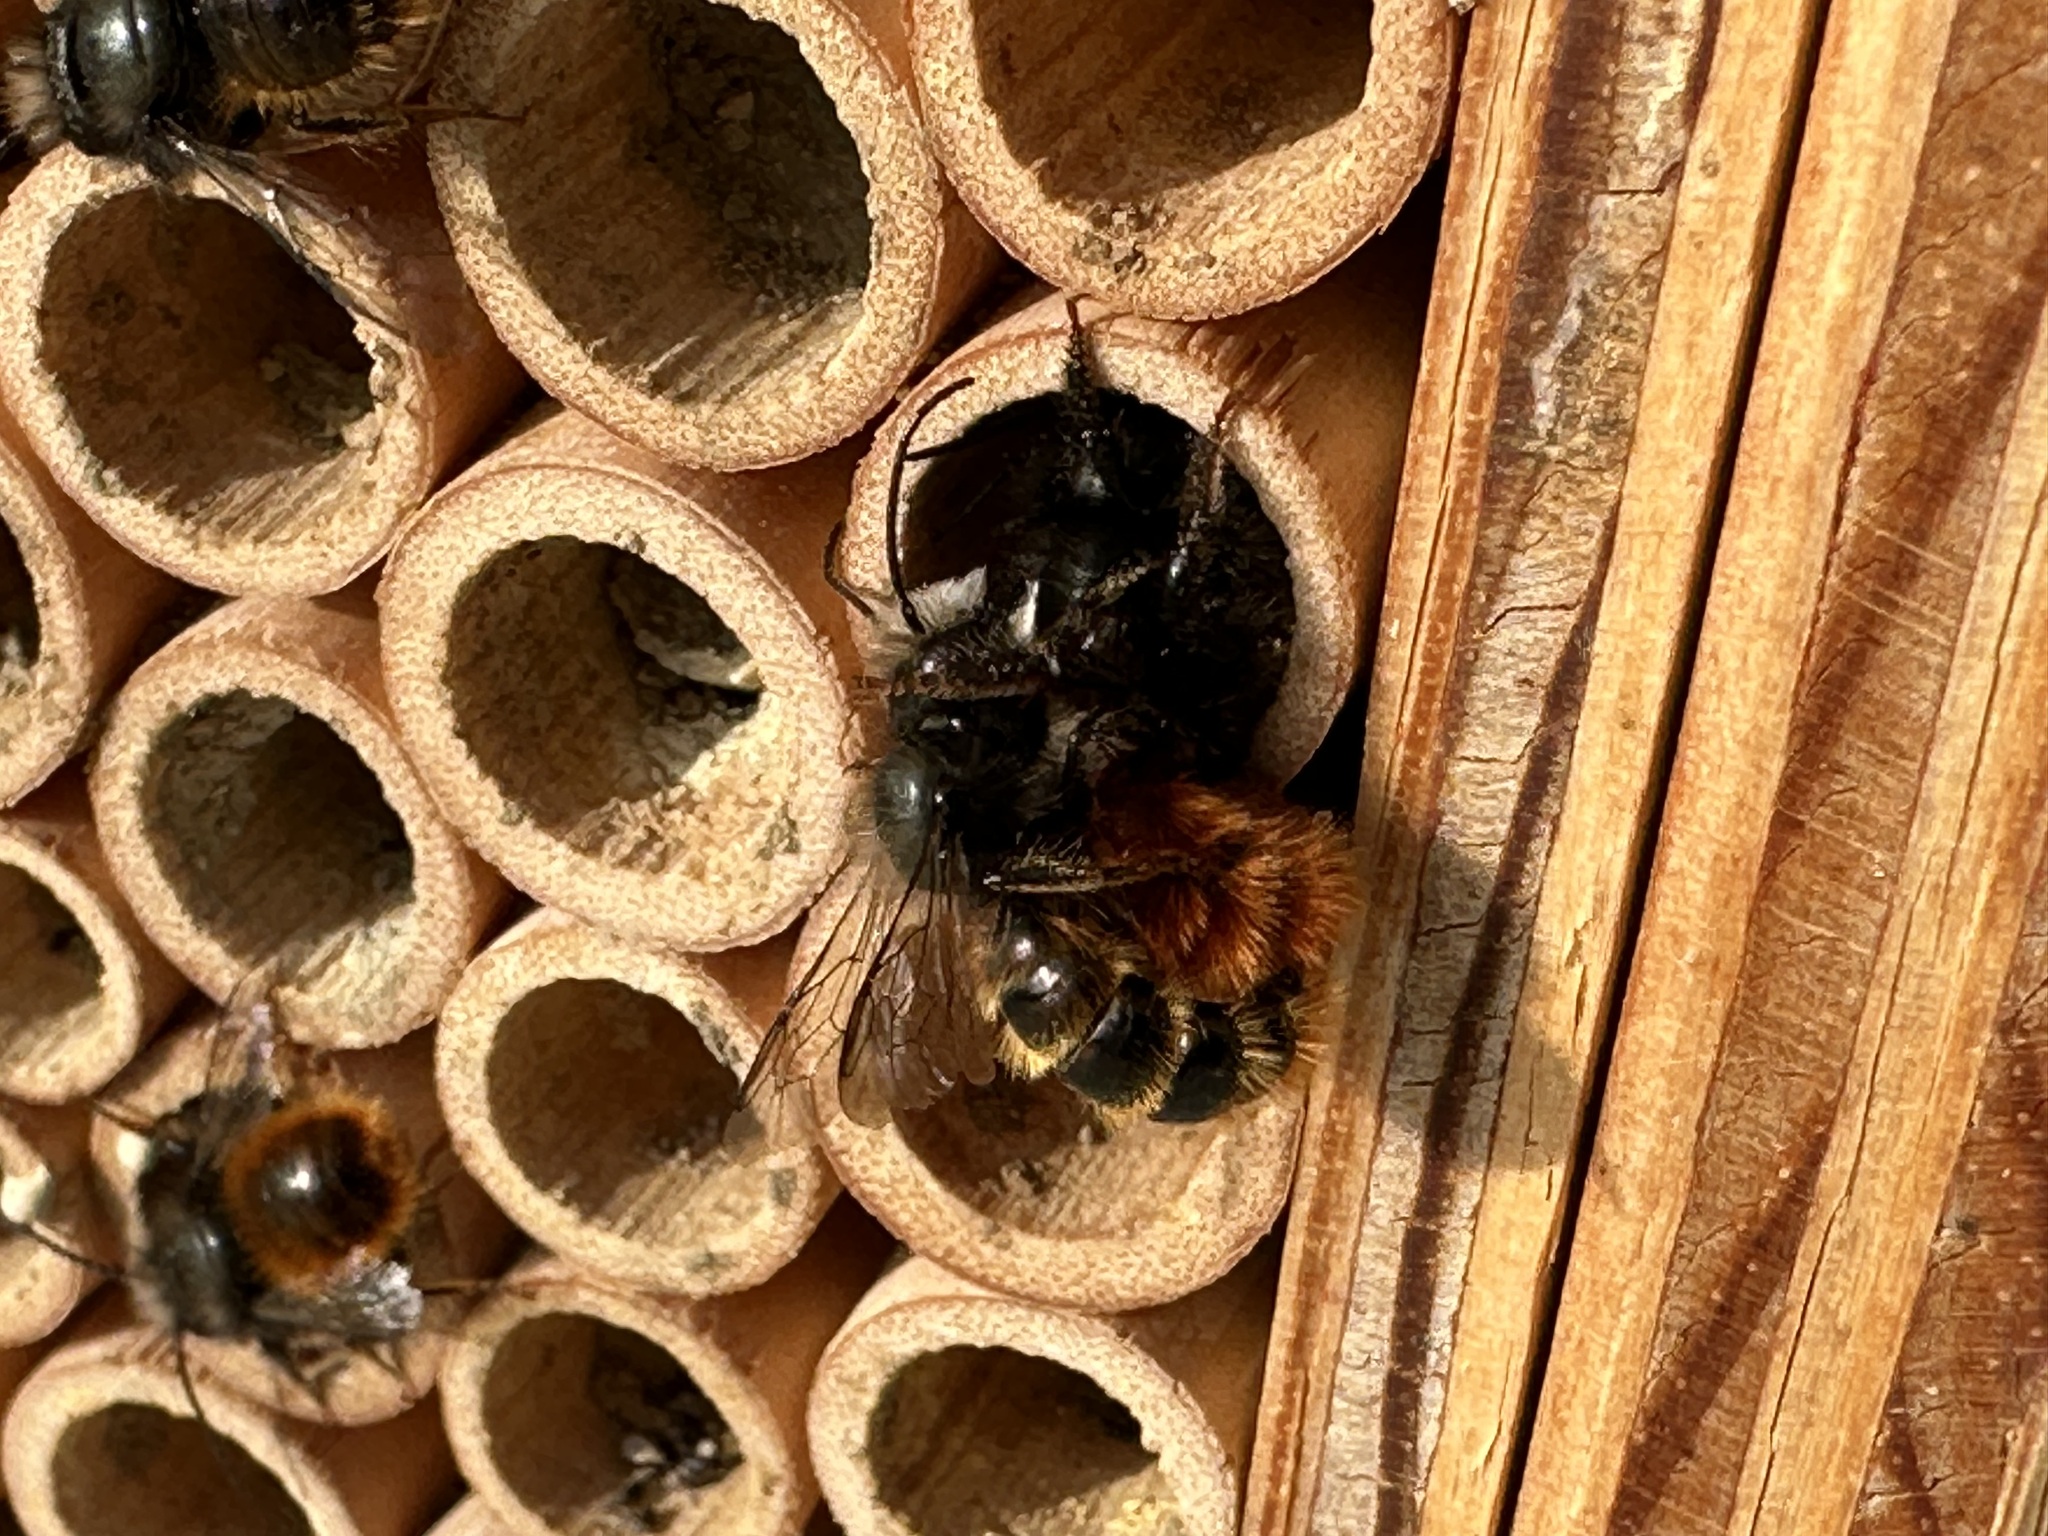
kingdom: Animalia
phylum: Arthropoda
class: Insecta
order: Hymenoptera
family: Megachilidae
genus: Osmia
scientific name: Osmia cornuta
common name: Mason bee
